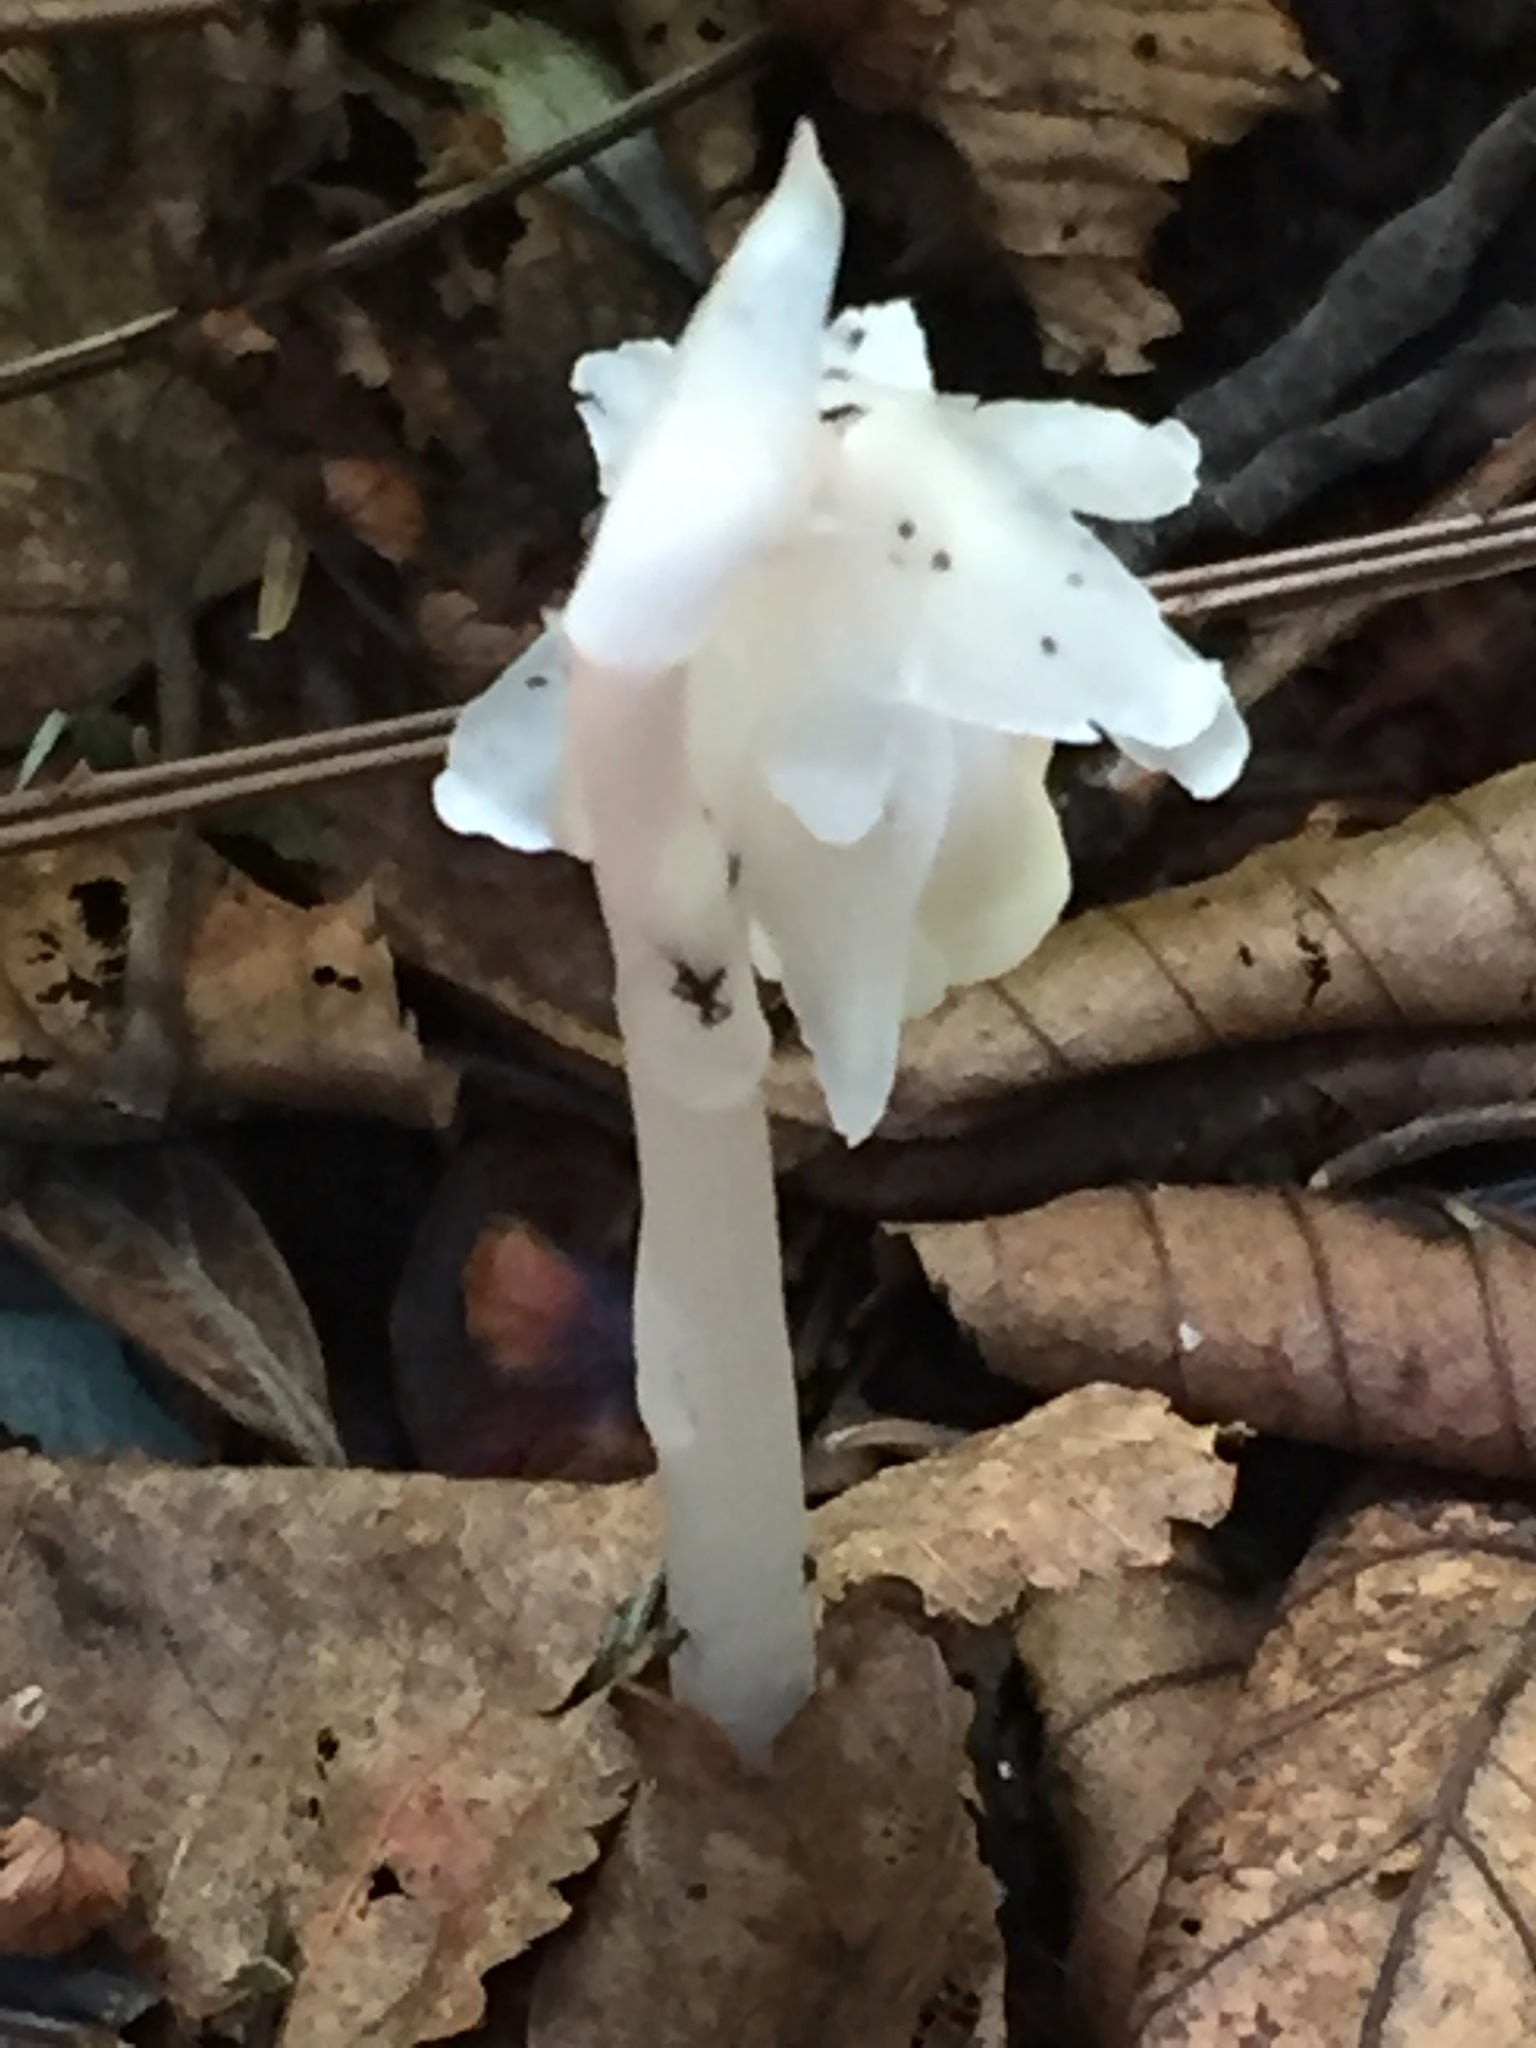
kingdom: Plantae
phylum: Tracheophyta
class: Magnoliopsida
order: Ericales
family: Ericaceae
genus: Monotropa
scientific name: Monotropa uniflora
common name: Convulsion root
